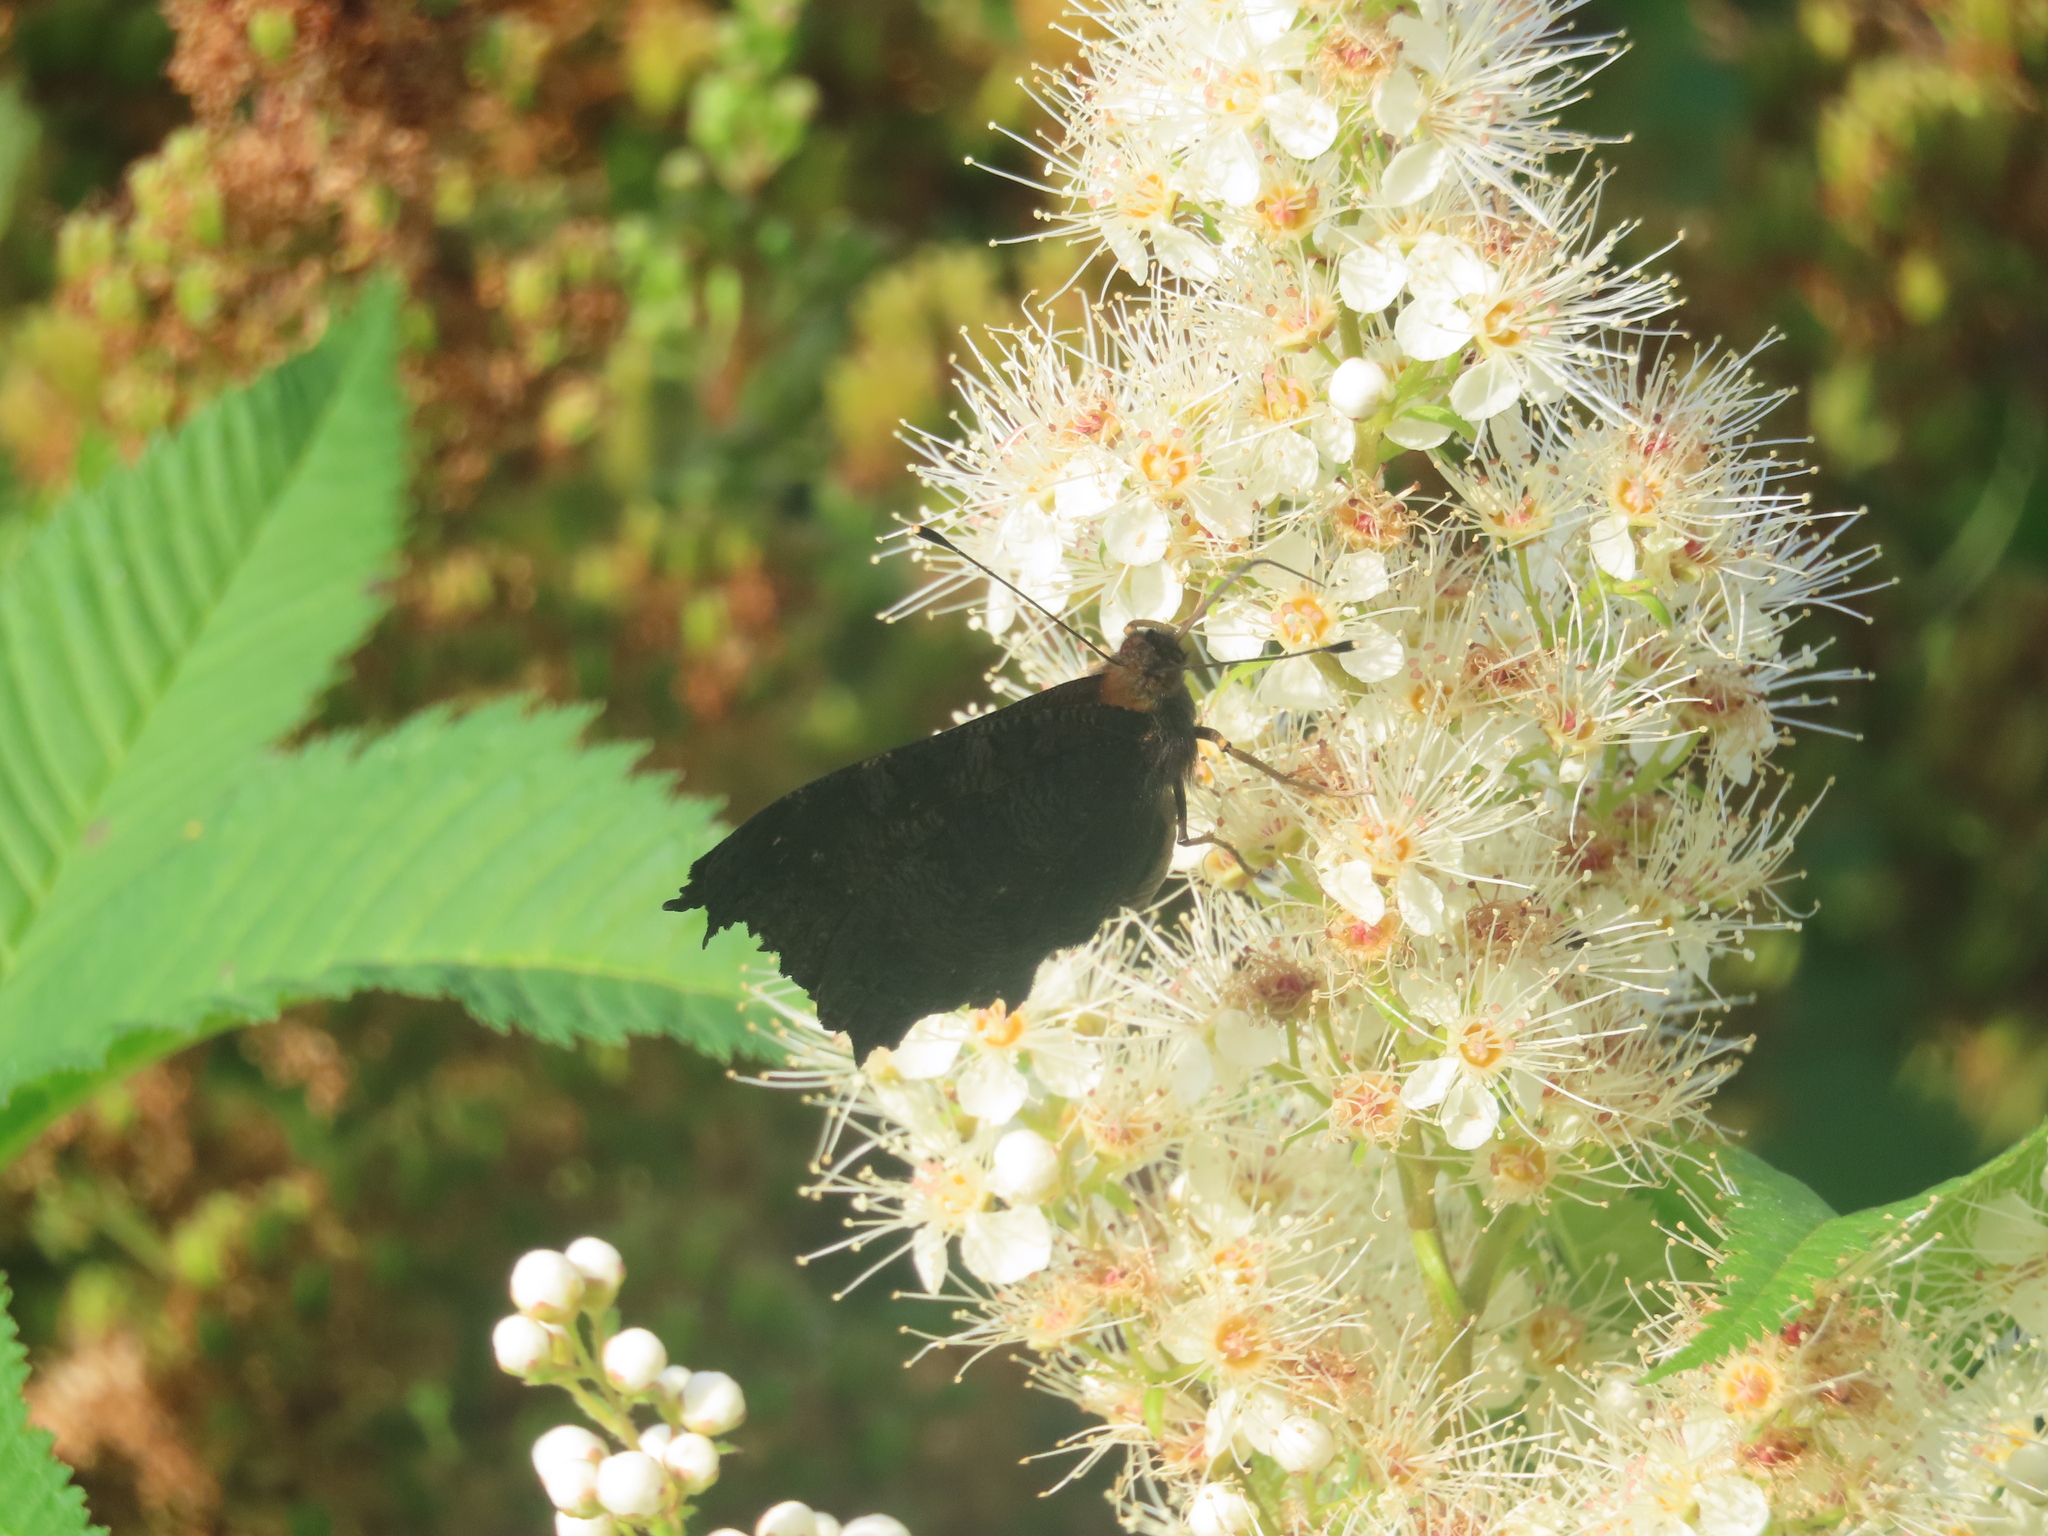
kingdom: Animalia
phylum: Arthropoda
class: Insecta
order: Lepidoptera
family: Nymphalidae
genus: Aglais
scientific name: Aglais io
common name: Peacock
